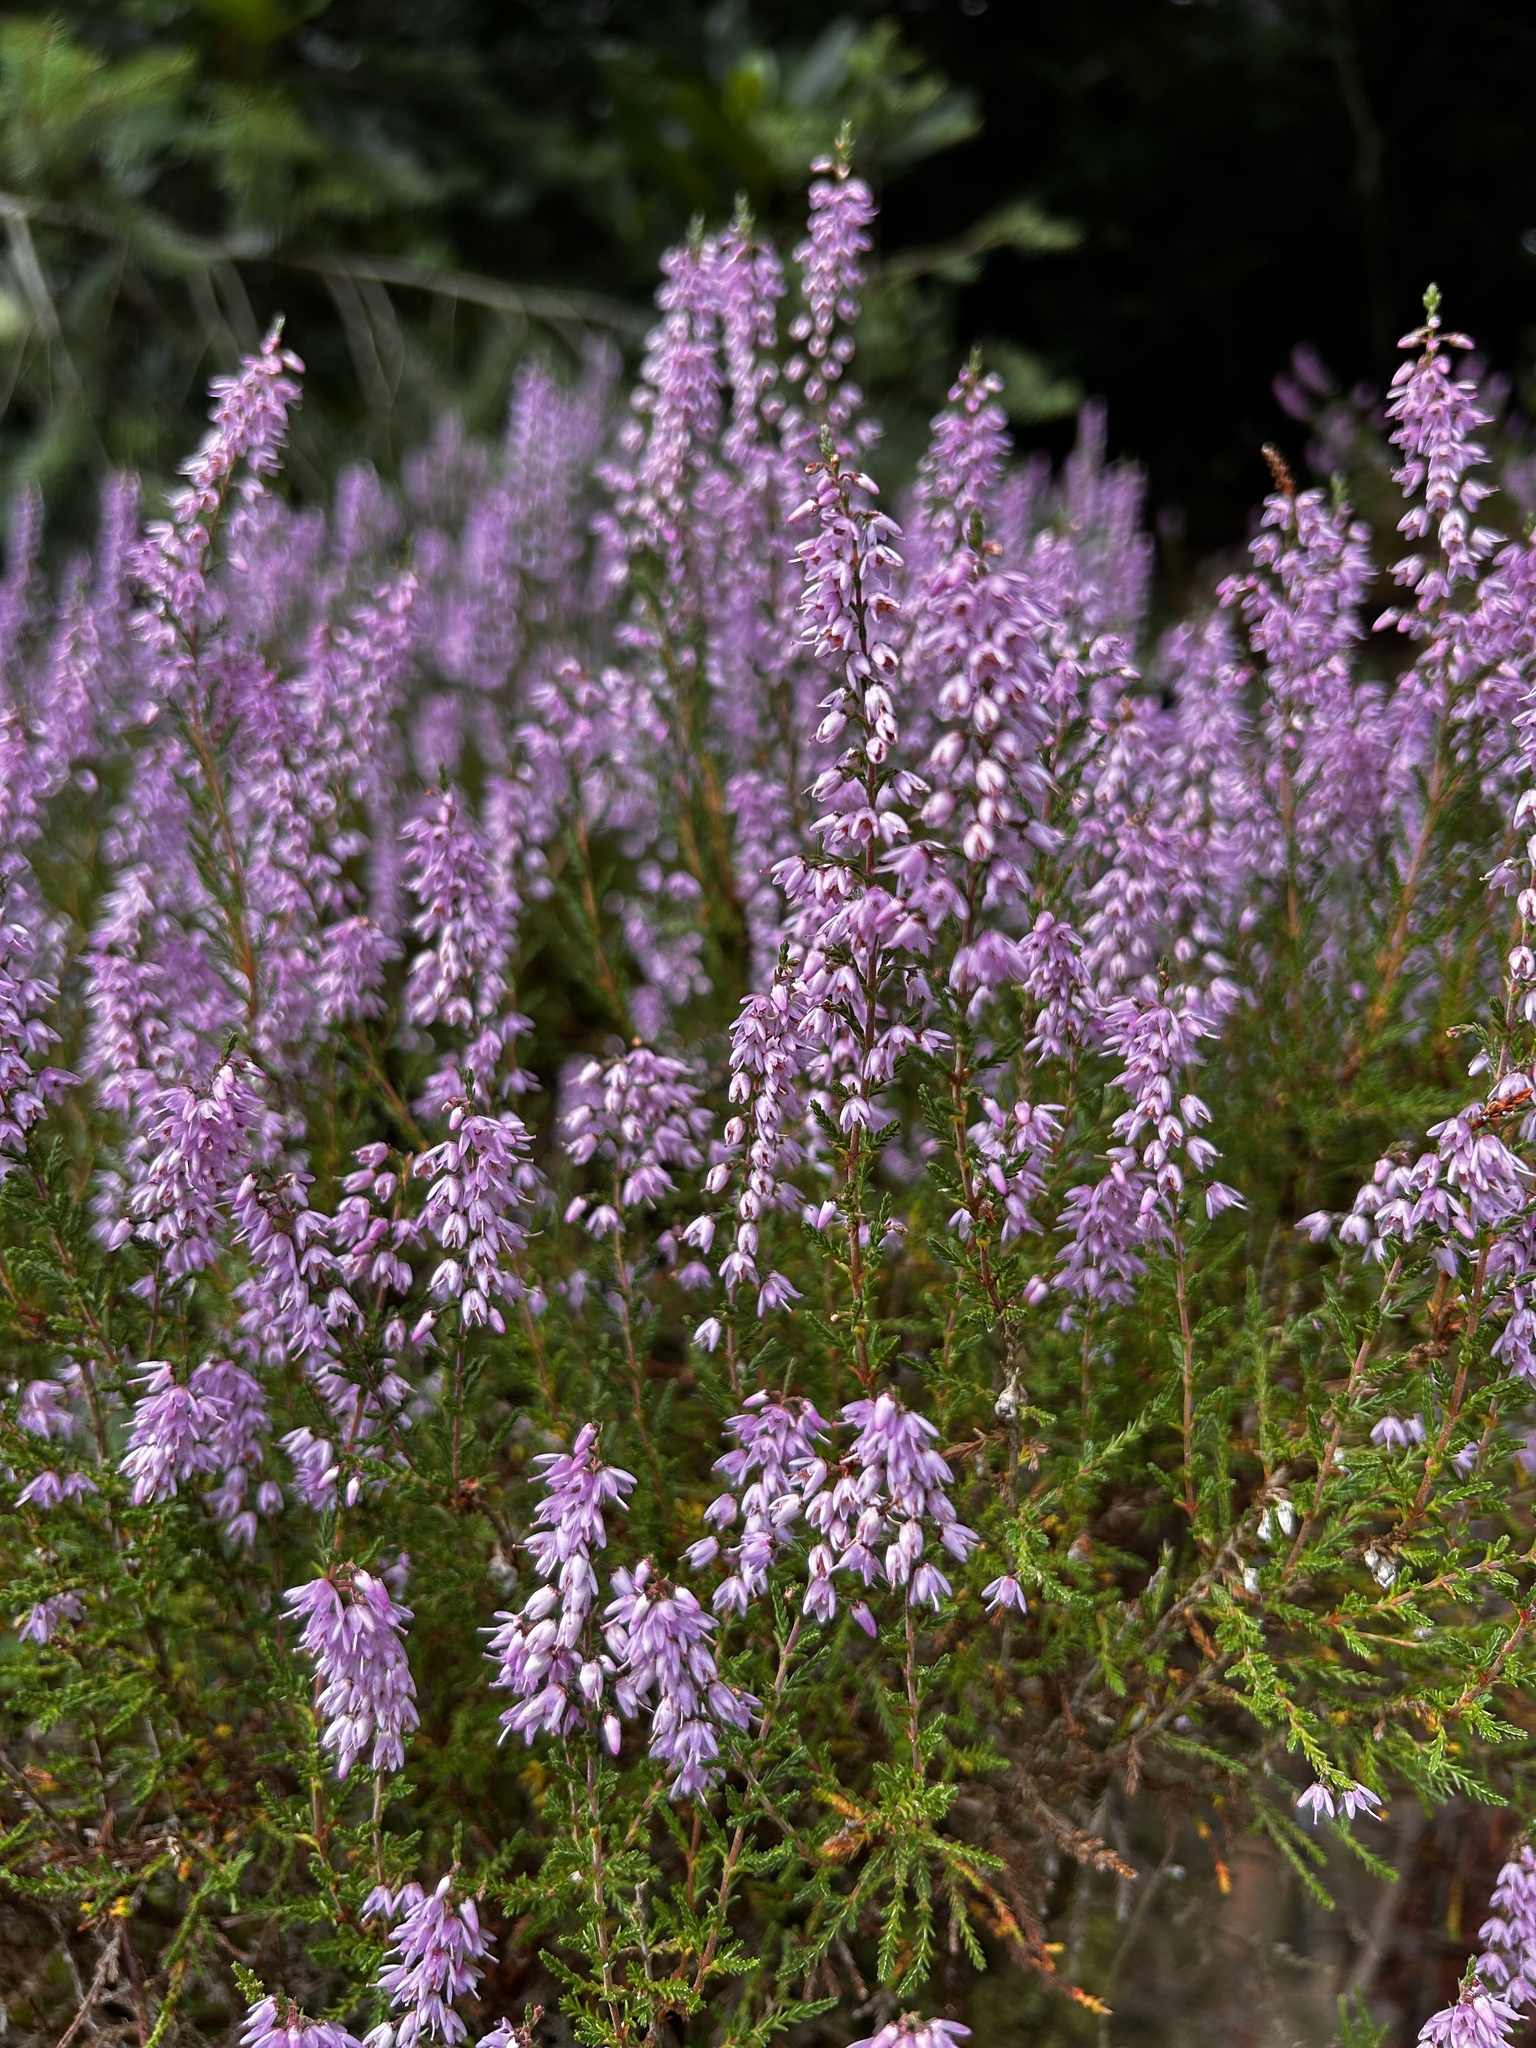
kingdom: Plantae
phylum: Tracheophyta
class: Magnoliopsida
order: Ericales
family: Ericaceae
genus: Calluna
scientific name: Calluna vulgaris
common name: Heather
